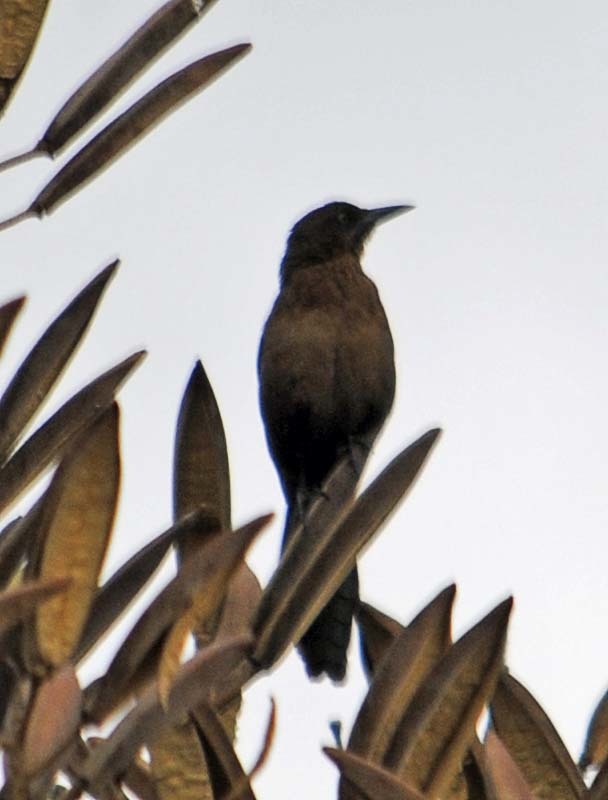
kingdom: Animalia
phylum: Chordata
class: Aves
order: Passeriformes
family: Icteridae
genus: Quiscalus
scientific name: Quiscalus mexicanus
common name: Great-tailed grackle
